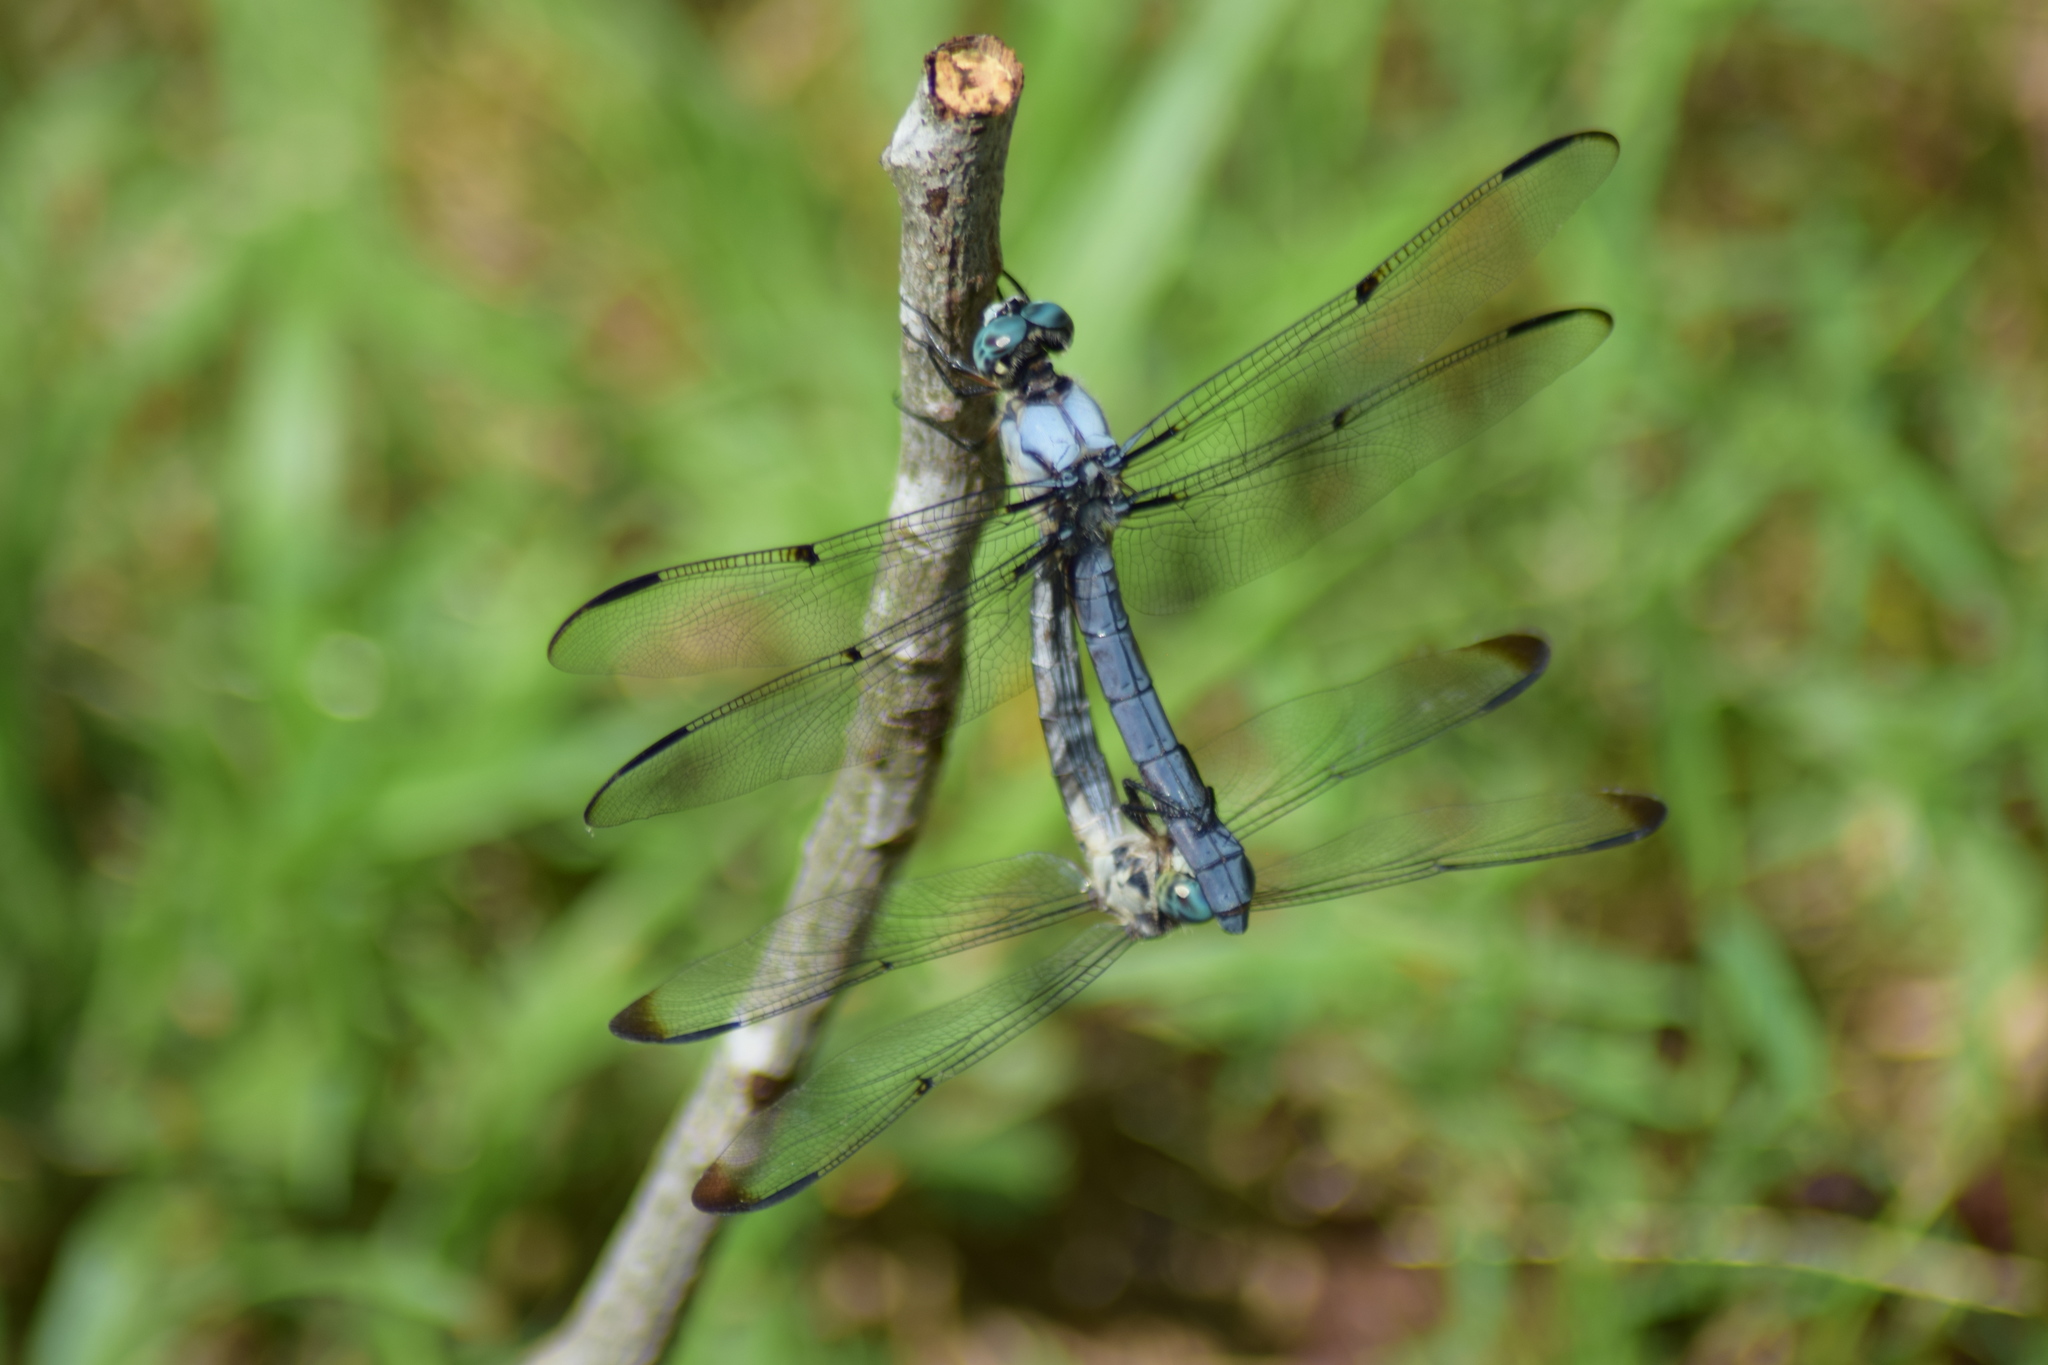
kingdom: Animalia
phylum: Arthropoda
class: Insecta
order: Odonata
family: Libellulidae
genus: Libellula
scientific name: Libellula vibrans
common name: Great blue skimmer
